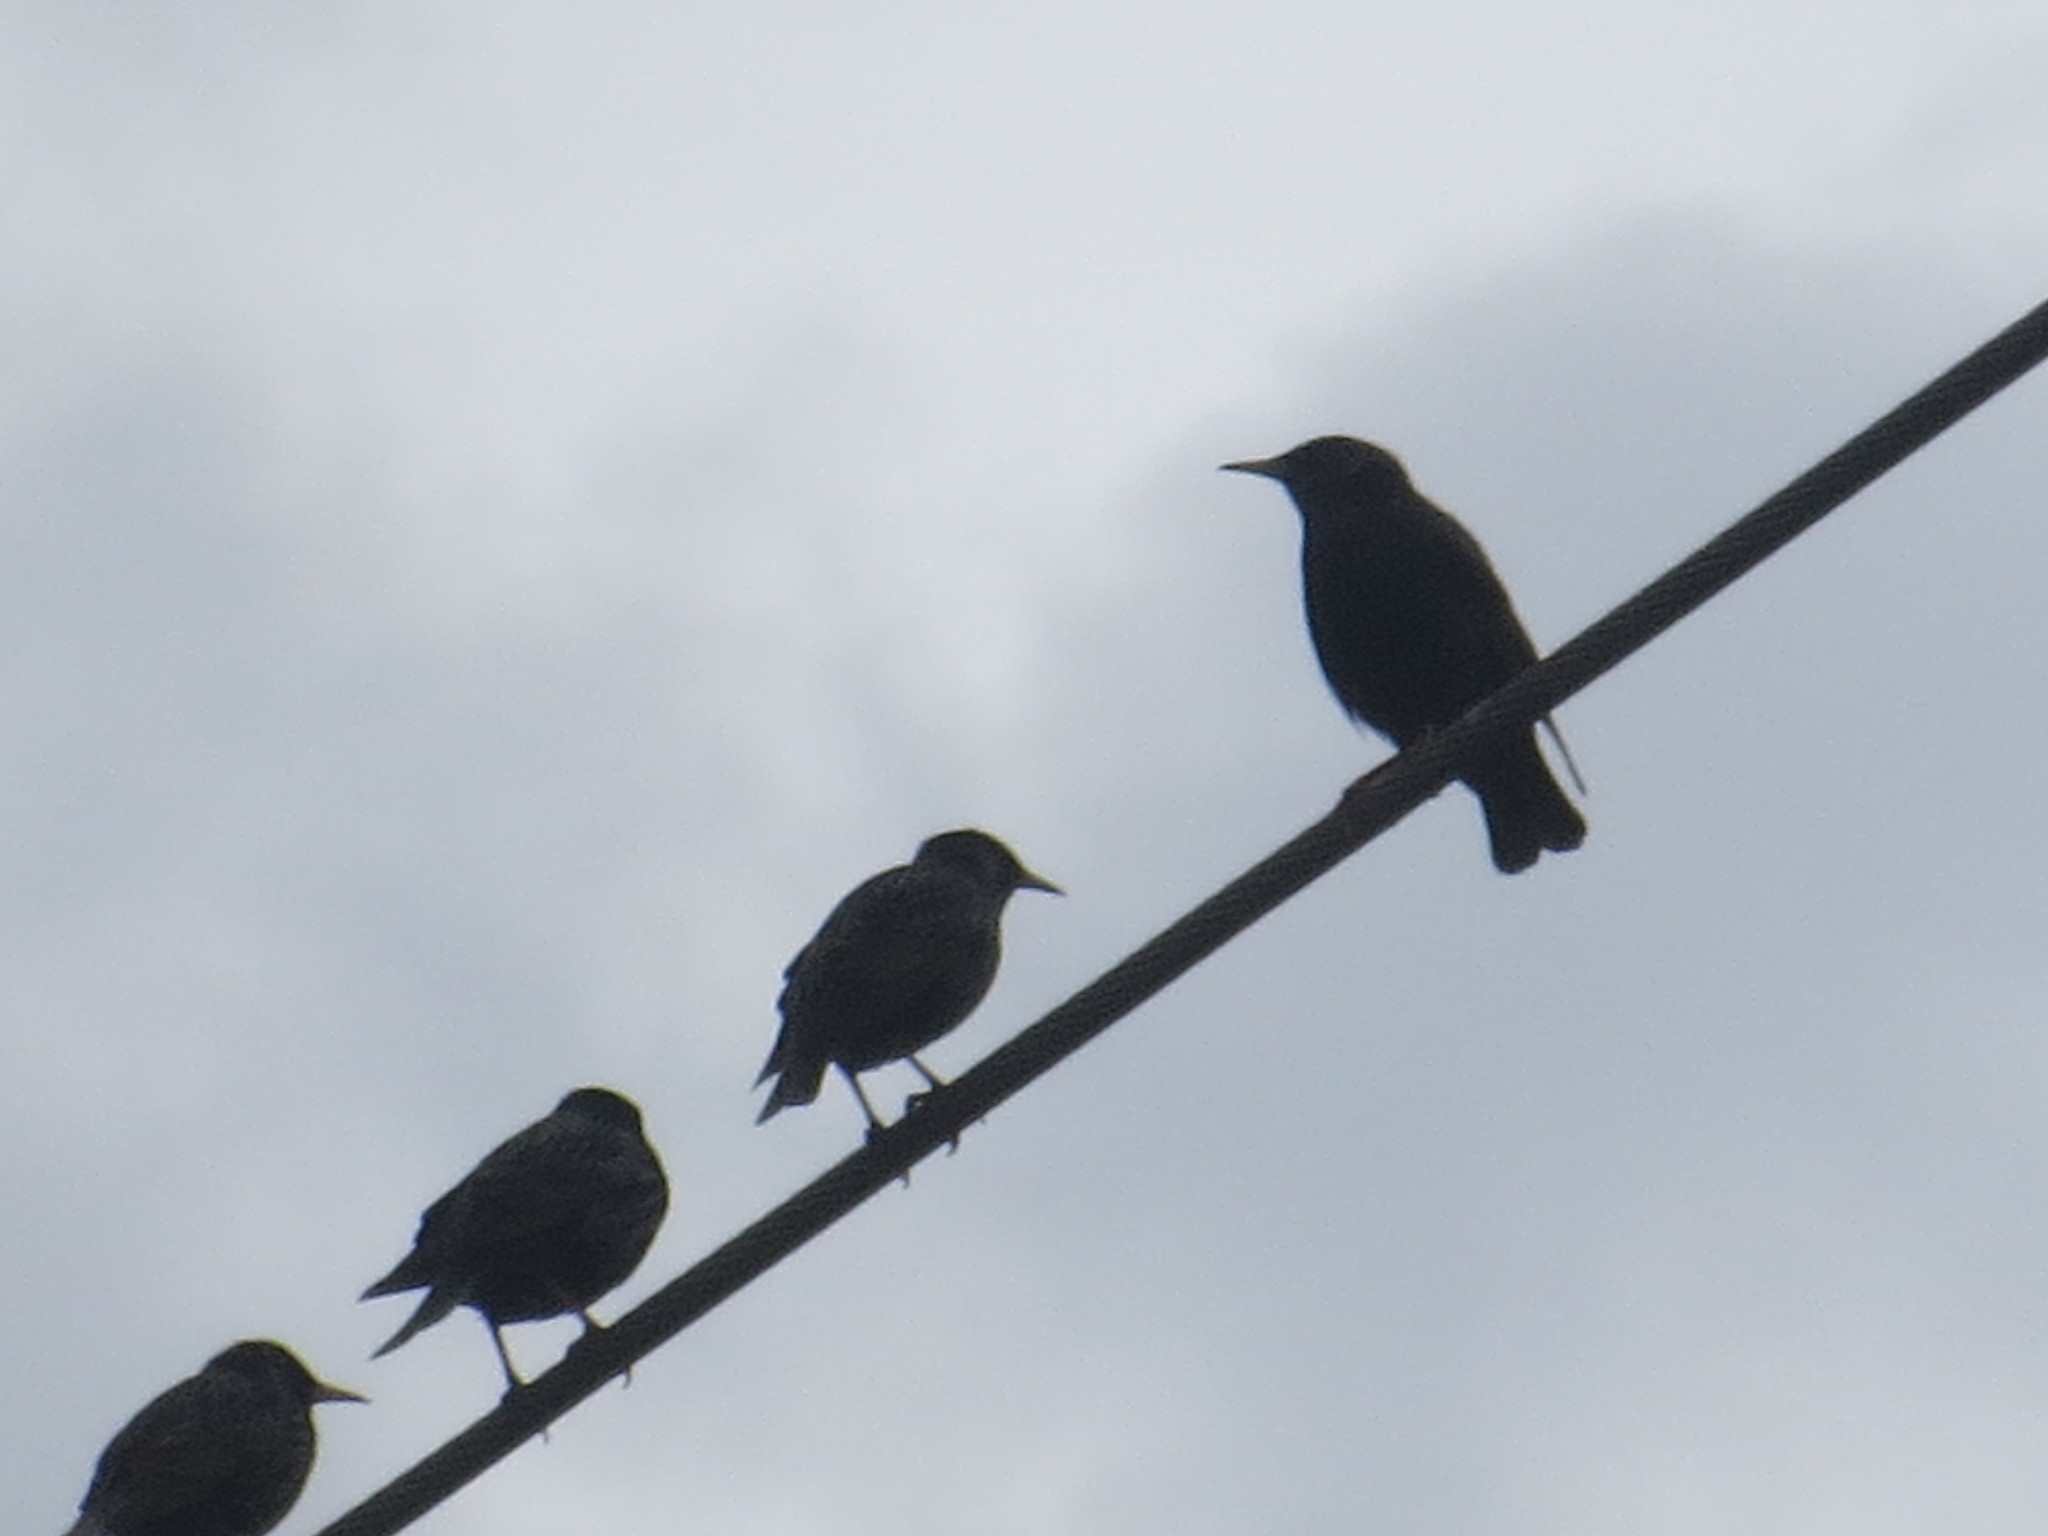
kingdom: Animalia
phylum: Chordata
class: Aves
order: Passeriformes
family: Sturnidae
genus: Sturnus
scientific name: Sturnus vulgaris
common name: Common starling
